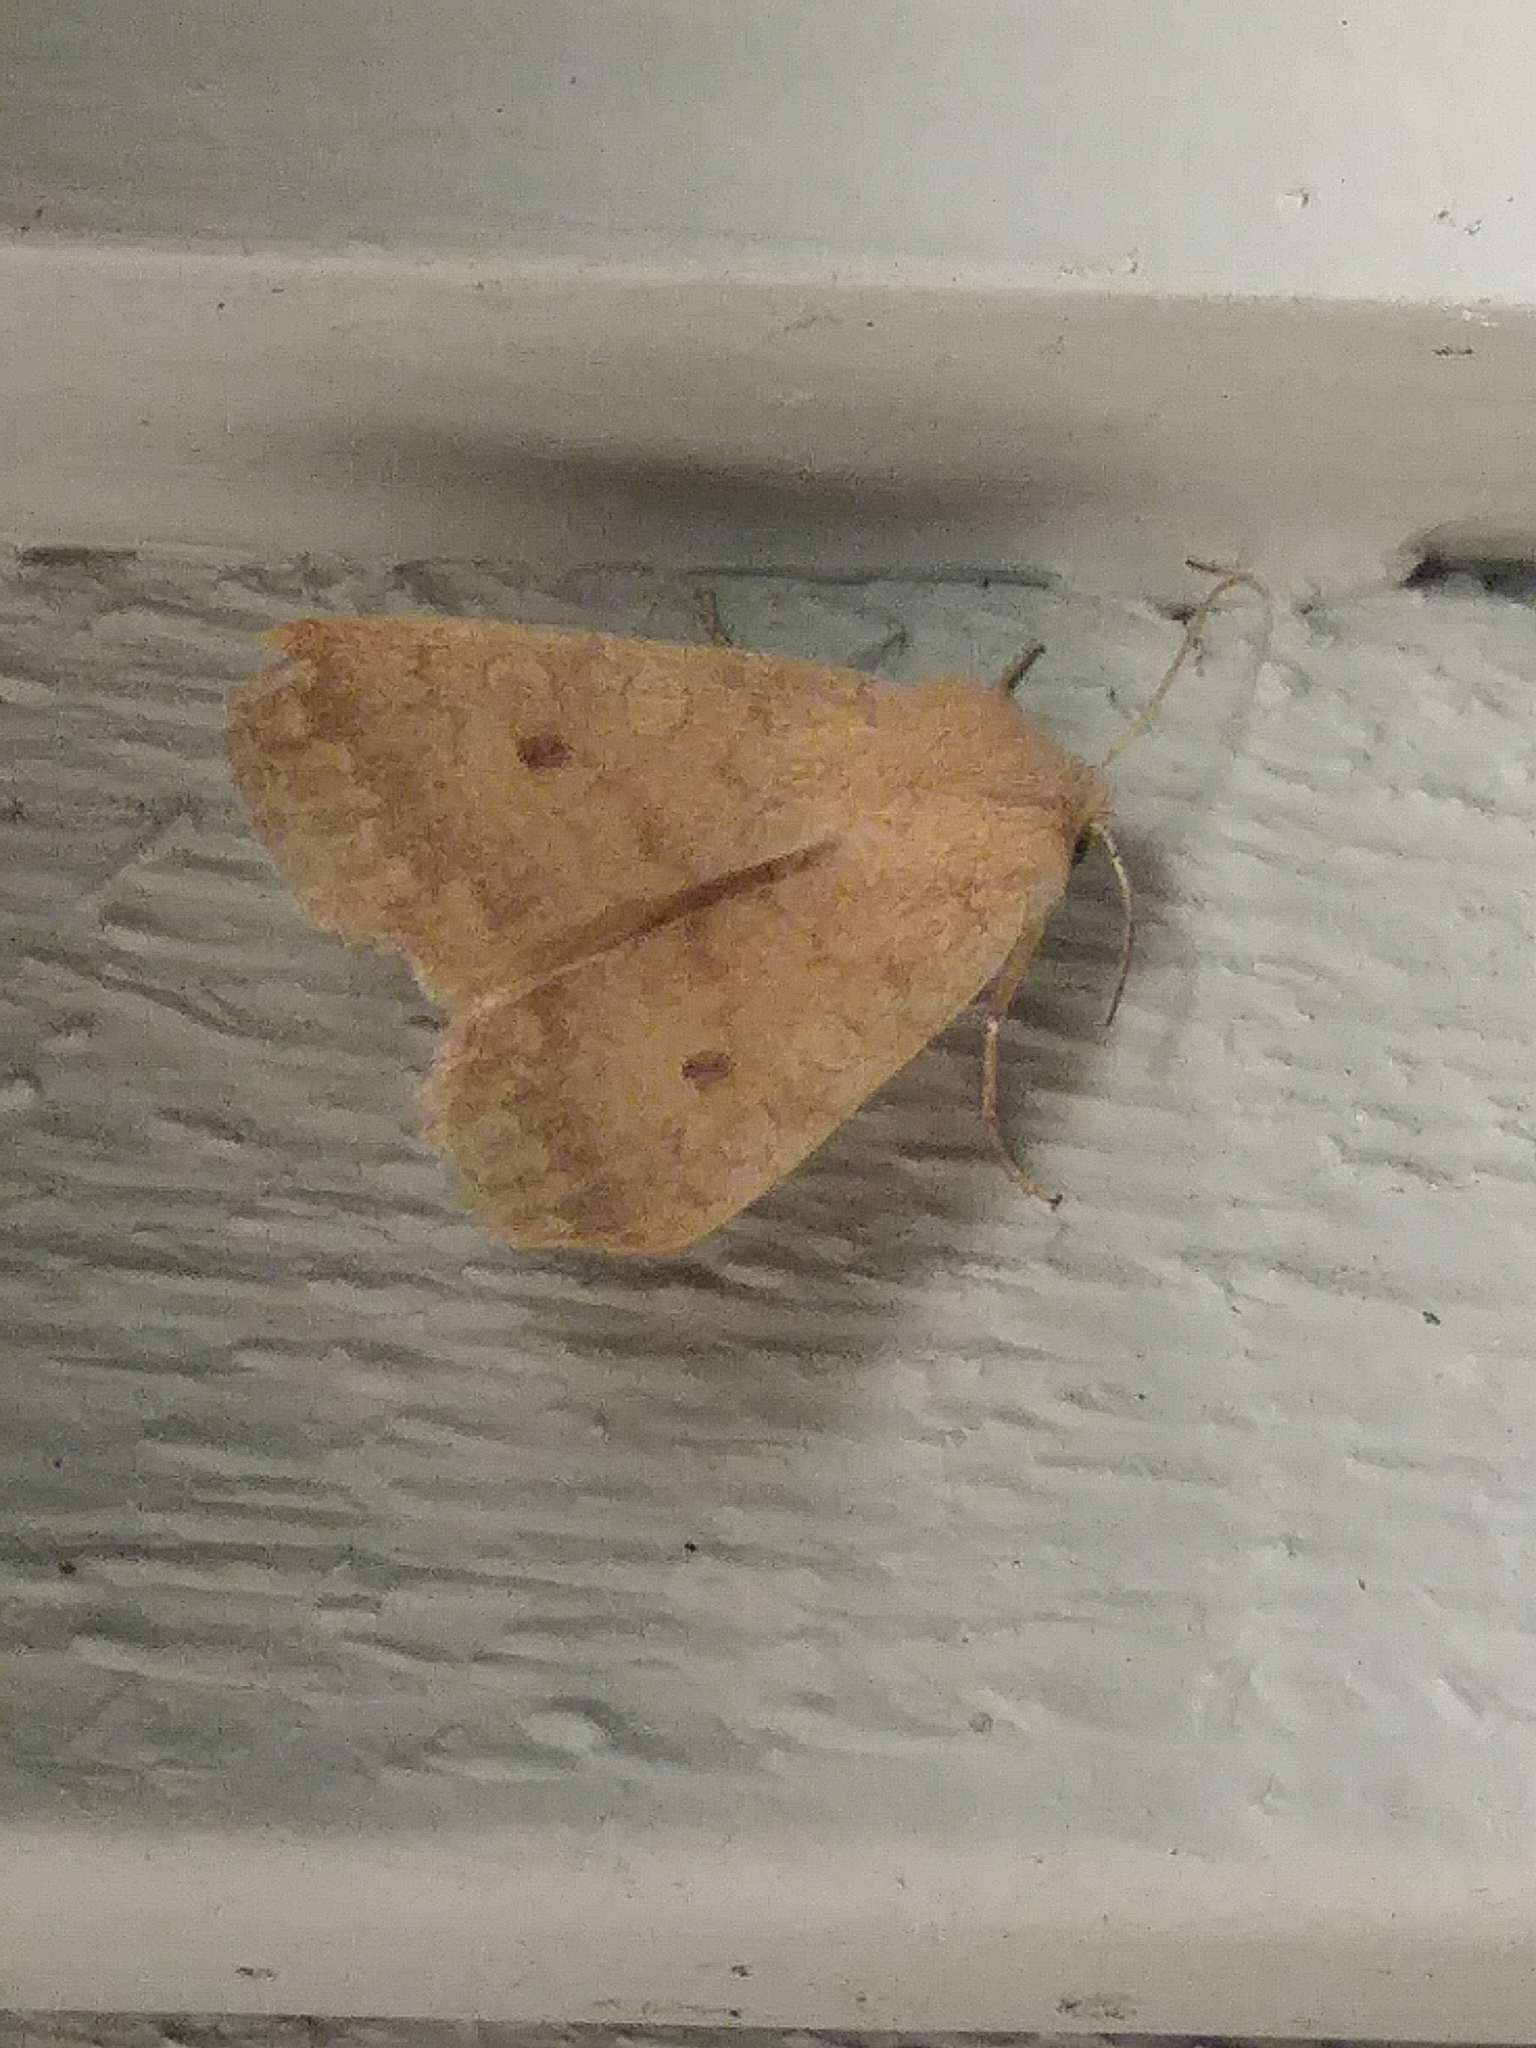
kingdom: Animalia
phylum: Arthropoda
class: Insecta
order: Lepidoptera
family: Noctuidae
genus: Agrochola
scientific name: Agrochola bicolorago
